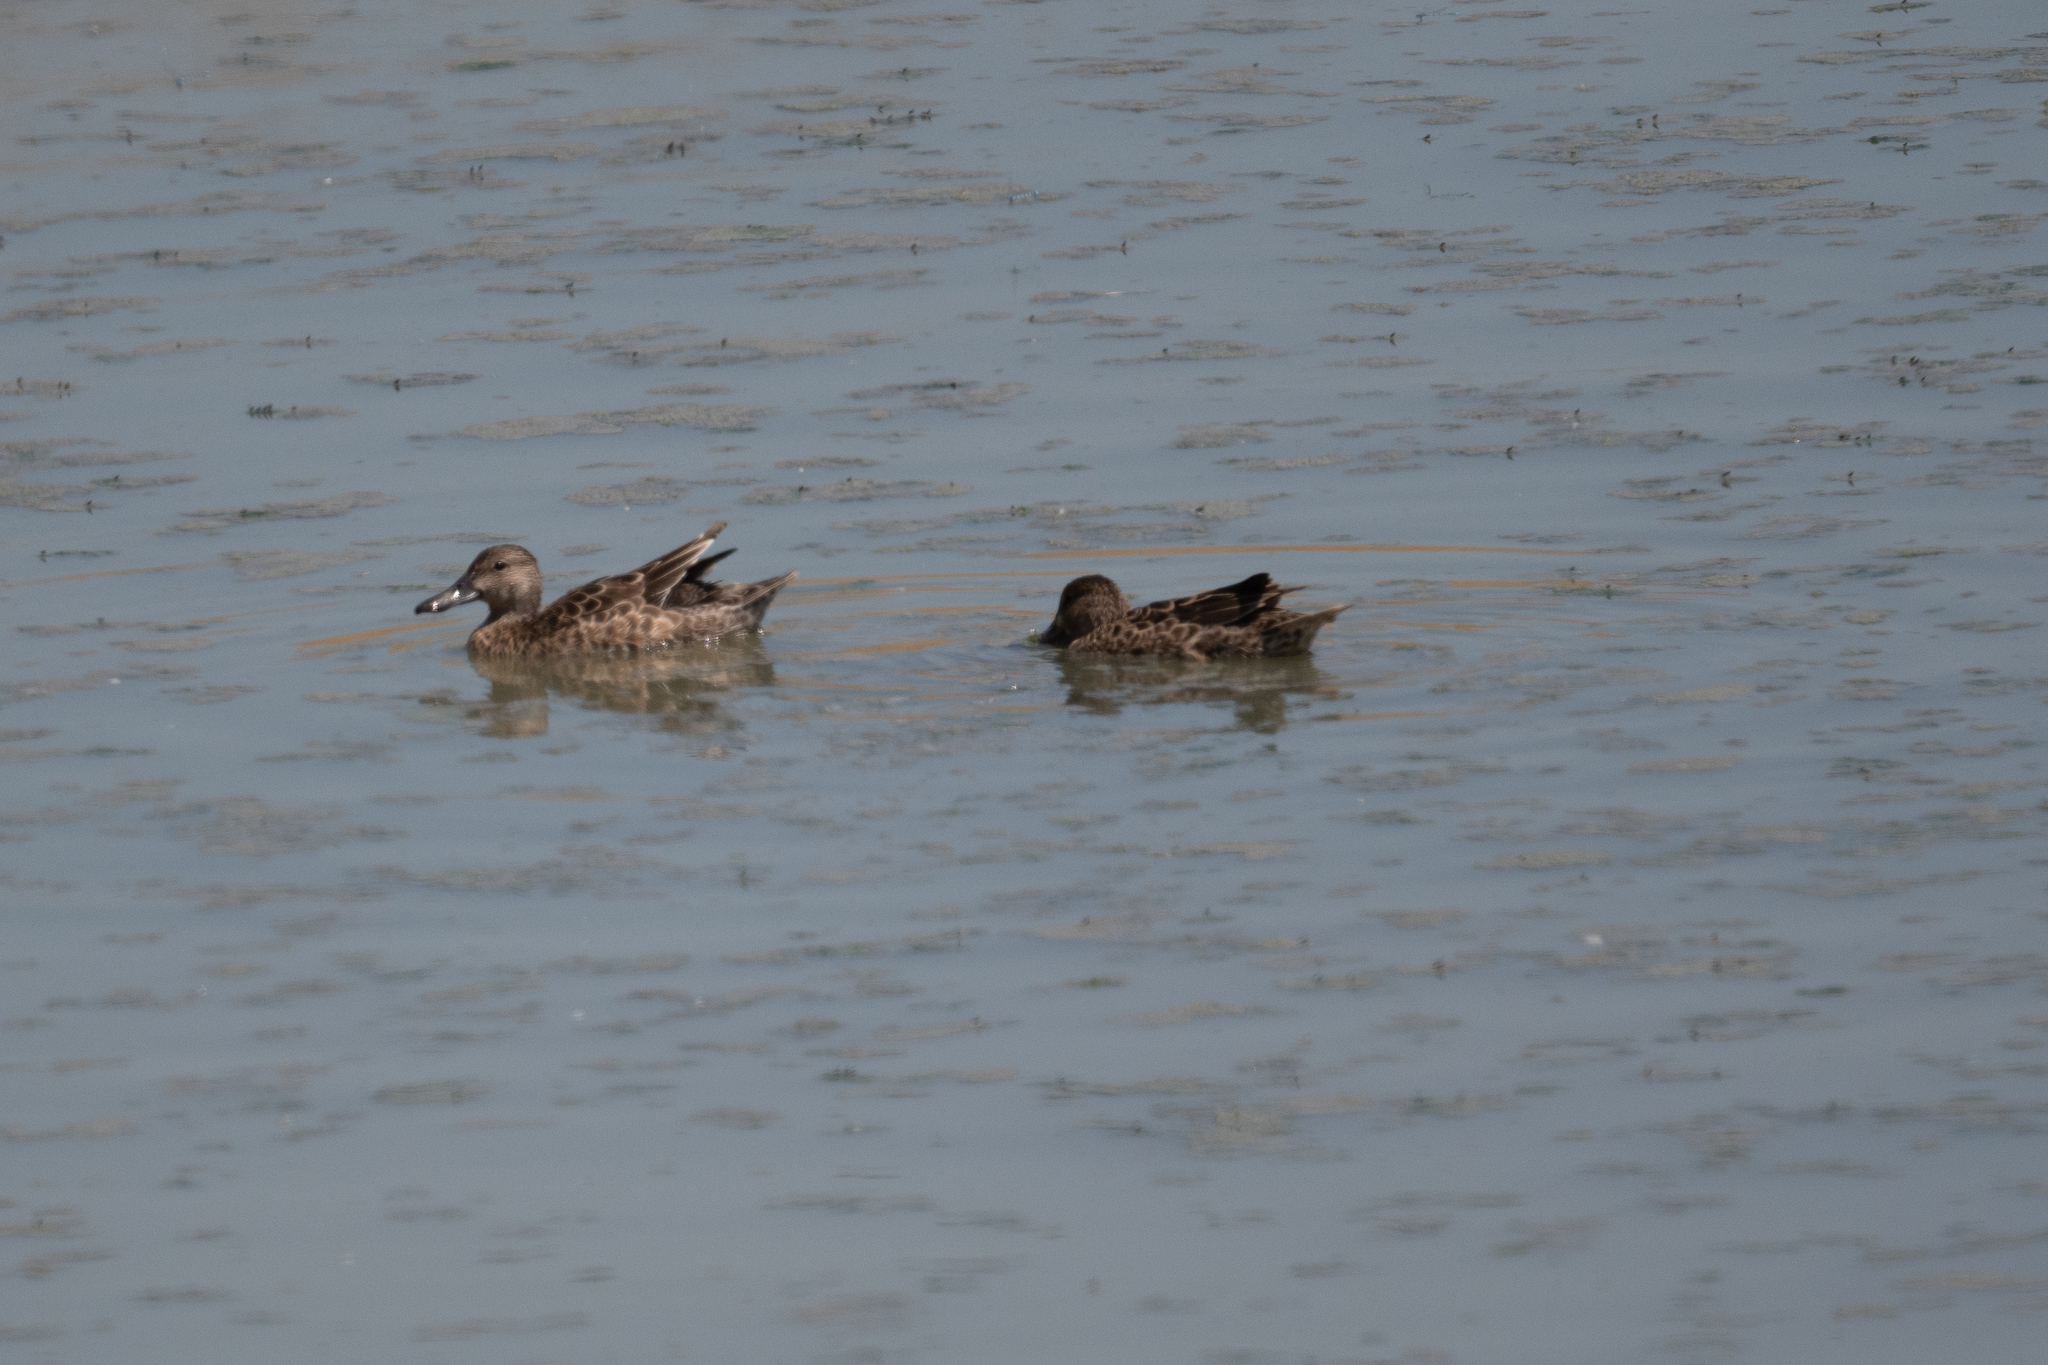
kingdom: Animalia
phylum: Chordata
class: Aves
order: Anseriformes
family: Anatidae
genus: Spatula
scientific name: Spatula clypeata
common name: Northern shoveler
